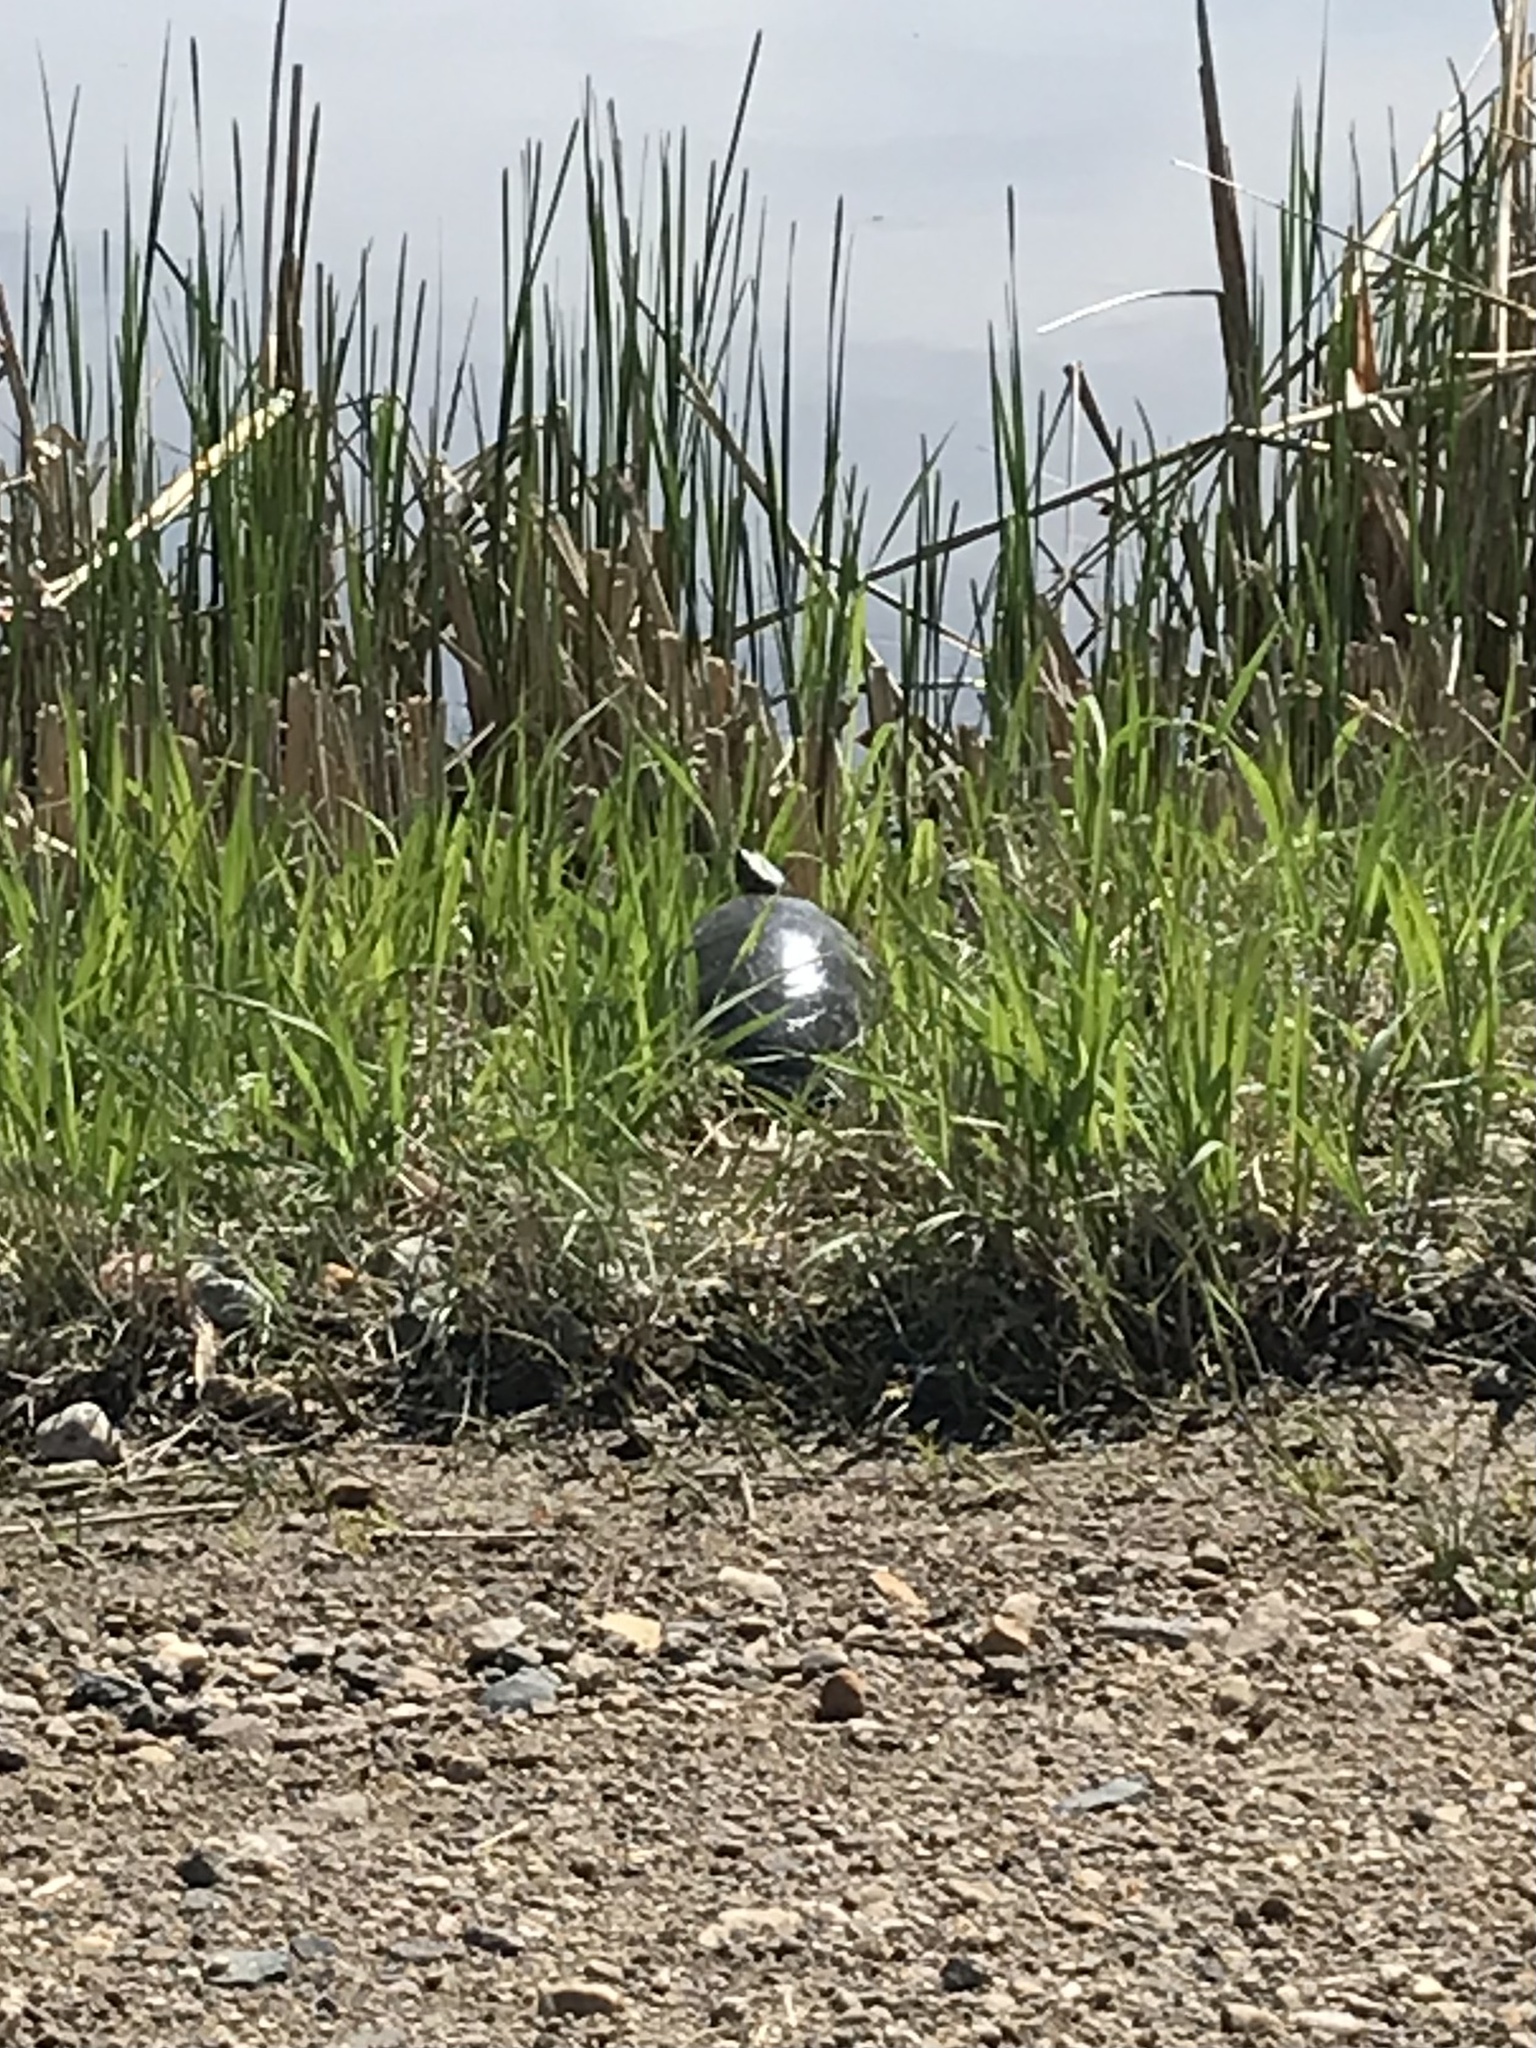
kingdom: Animalia
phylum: Chordata
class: Testudines
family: Emydidae
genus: Chrysemys
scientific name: Chrysemys picta
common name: Painted turtle
